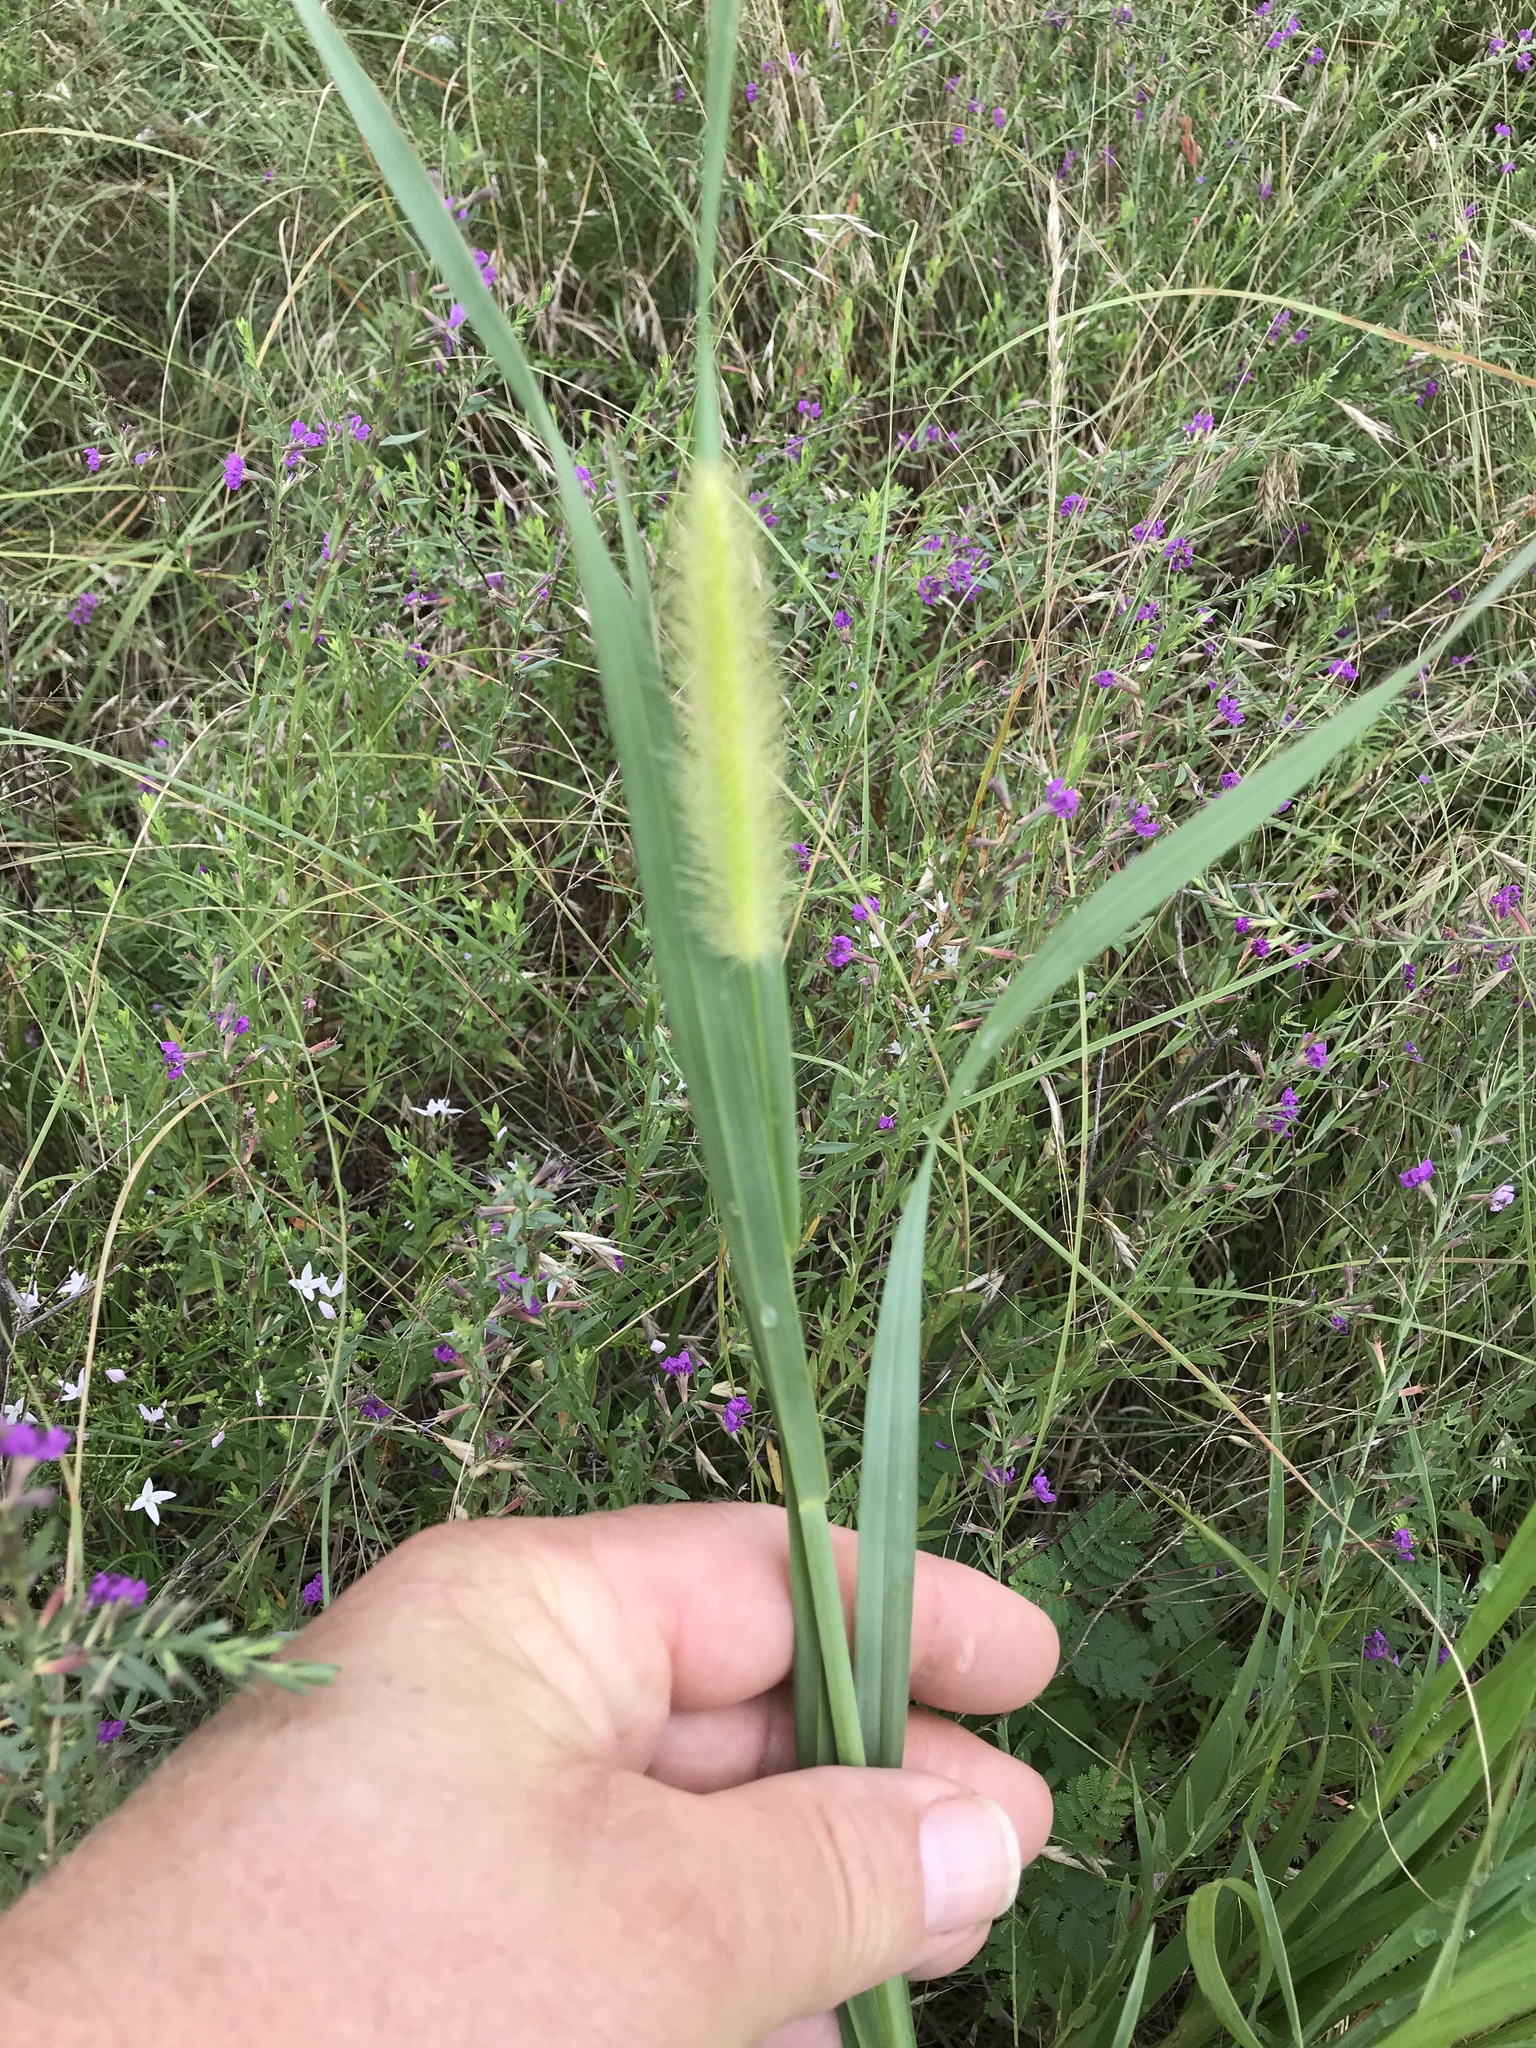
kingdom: Plantae
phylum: Tracheophyta
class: Liliopsida
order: Poales
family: Poaceae
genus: Setaria
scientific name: Setaria parviflora
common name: Knotroot bristle-grass
